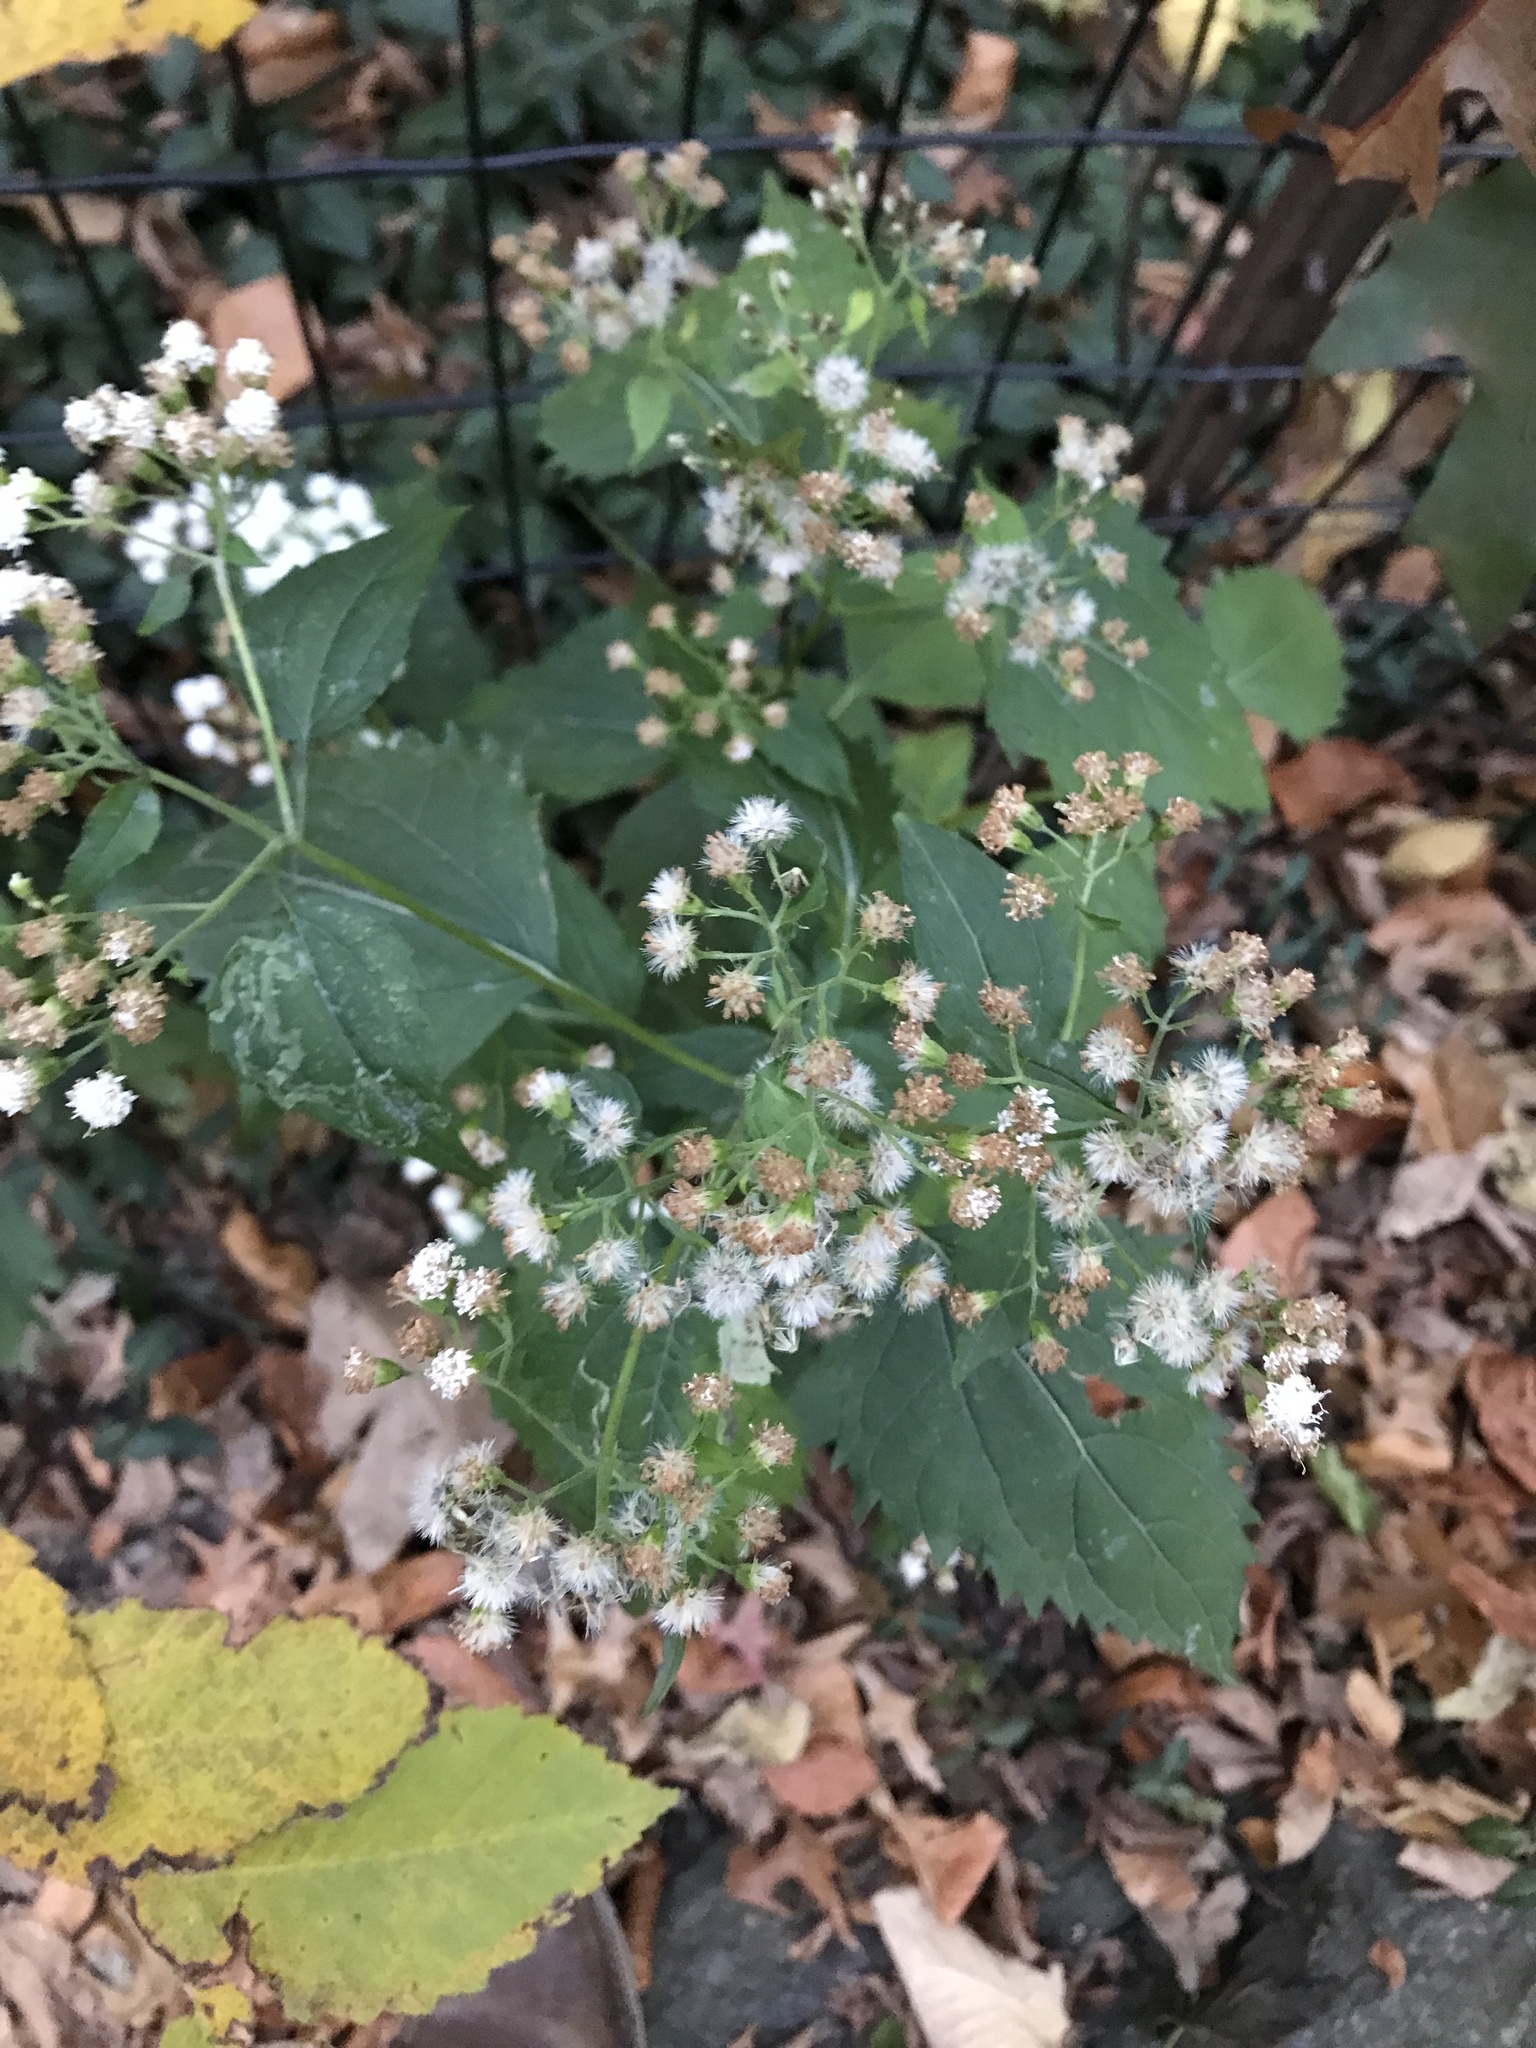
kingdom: Plantae
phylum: Tracheophyta
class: Magnoliopsida
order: Asterales
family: Asteraceae
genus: Ageratina
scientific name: Ageratina altissima
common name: White snakeroot
